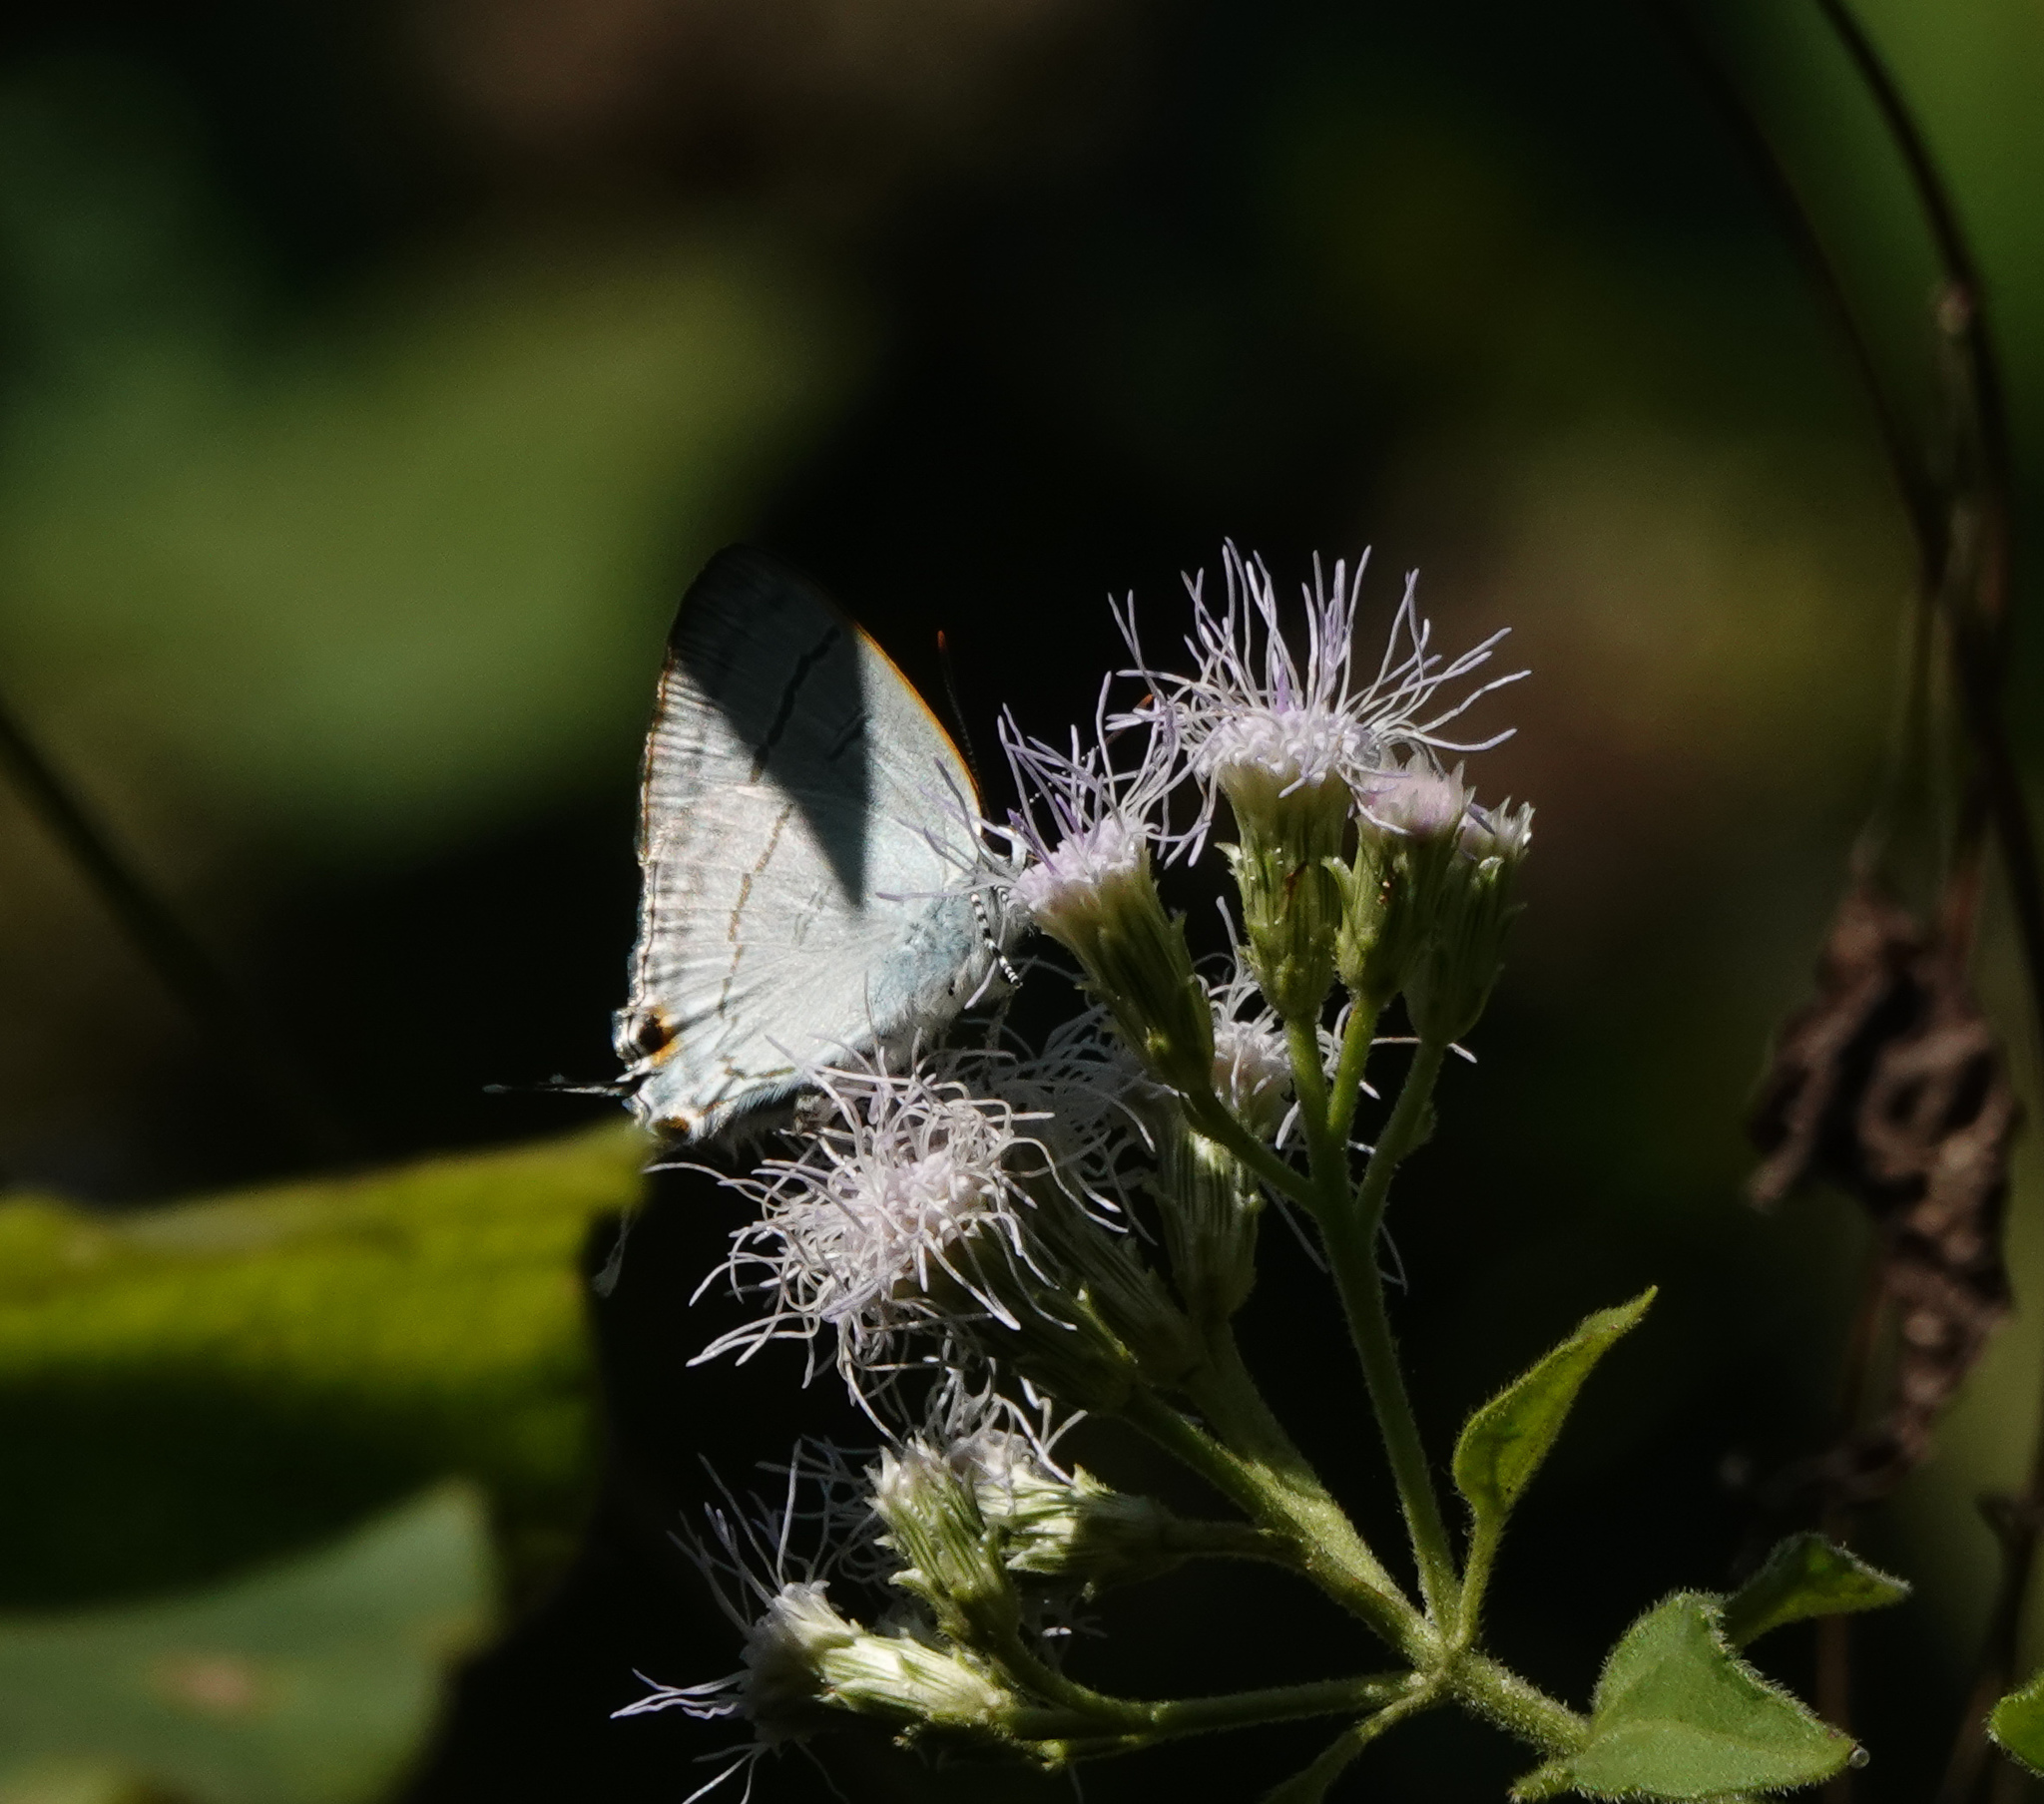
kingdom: Animalia
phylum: Arthropoda
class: Insecta
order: Lepidoptera
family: Lycaenidae
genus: Hypolycaena
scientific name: Hypolycaena erylus
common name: Common tit
